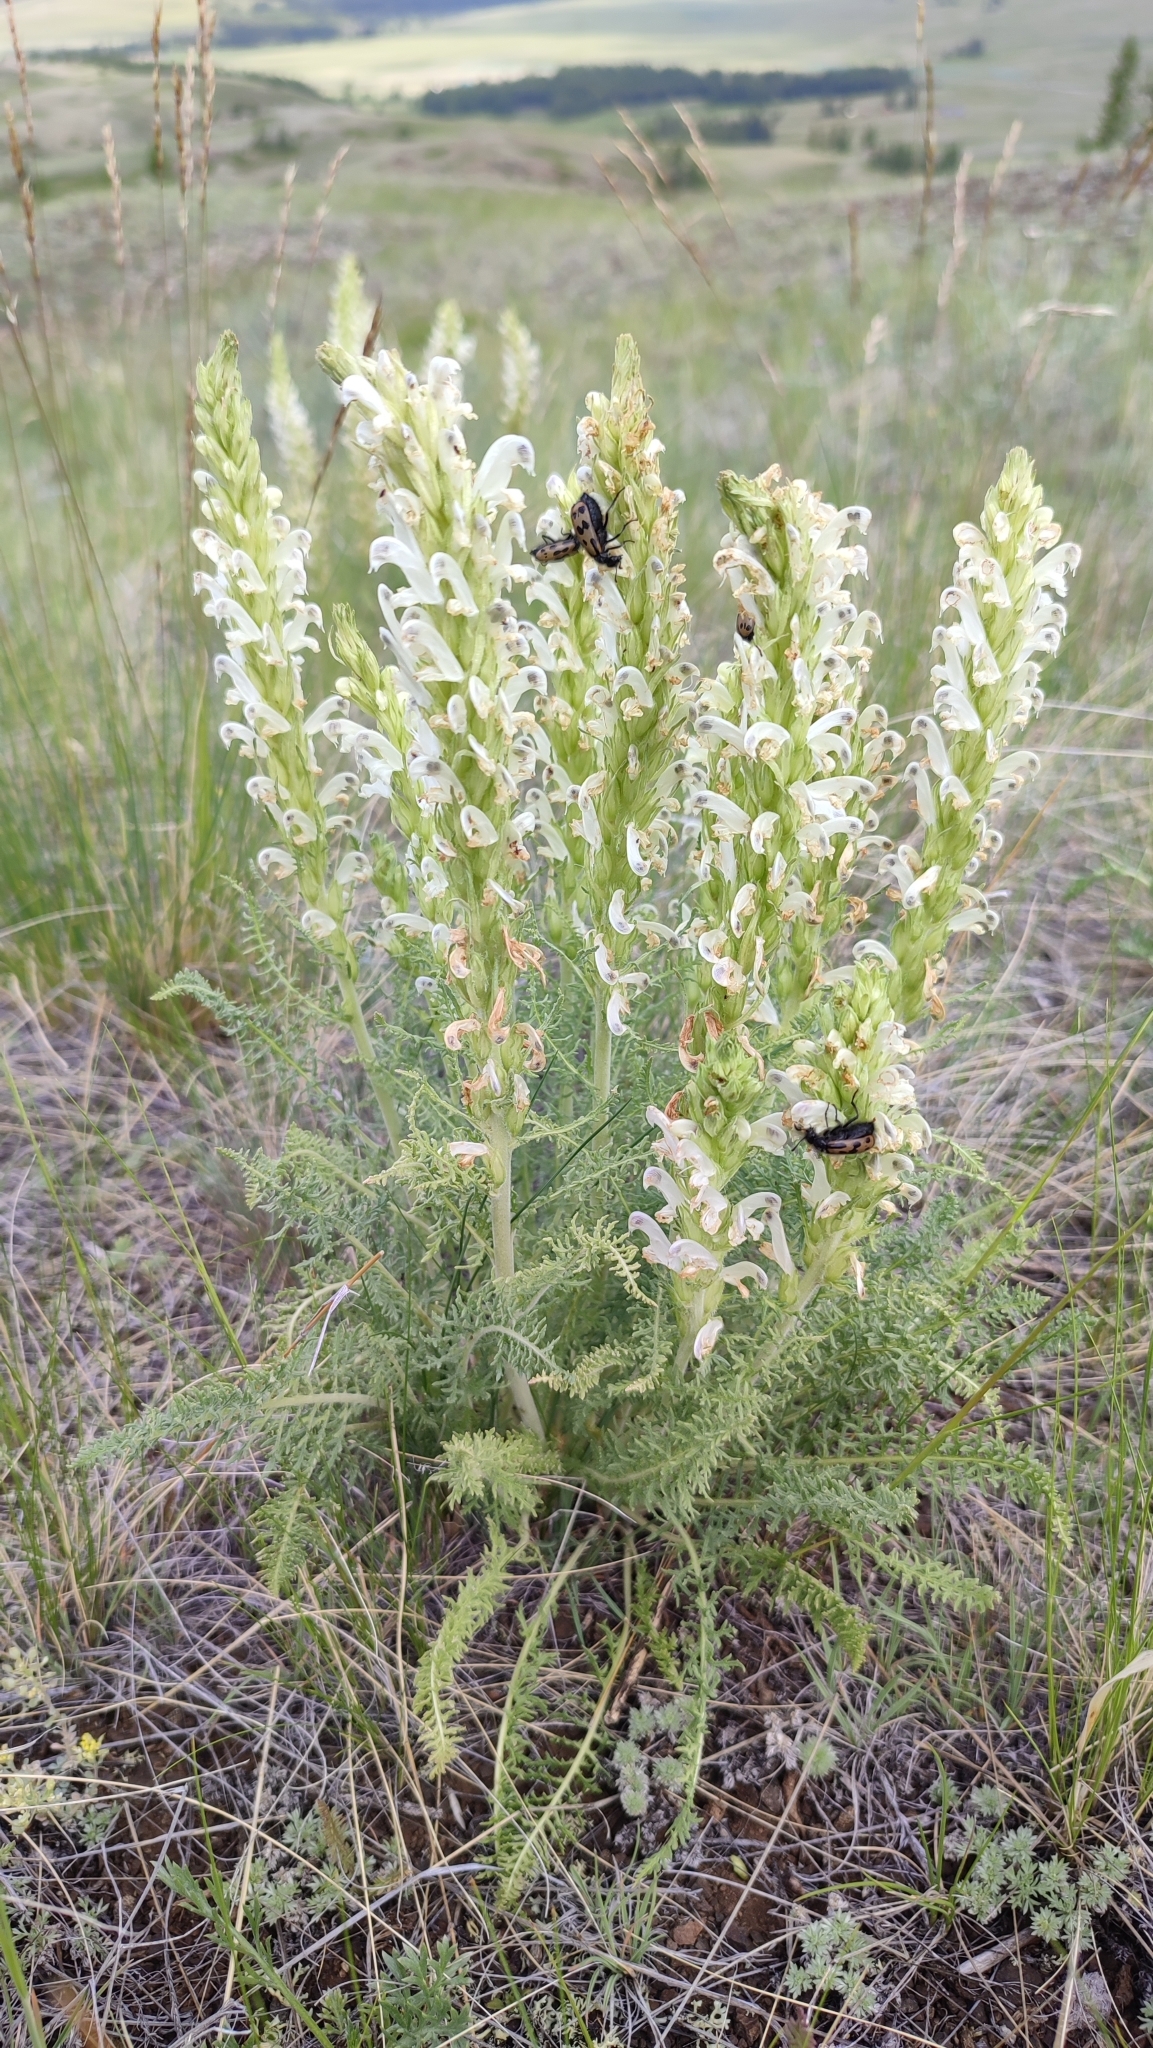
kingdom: Plantae
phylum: Tracheophyta
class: Magnoliopsida
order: Lamiales
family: Orobanchaceae
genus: Pedicularis
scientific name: Pedicularis achilleifolia
